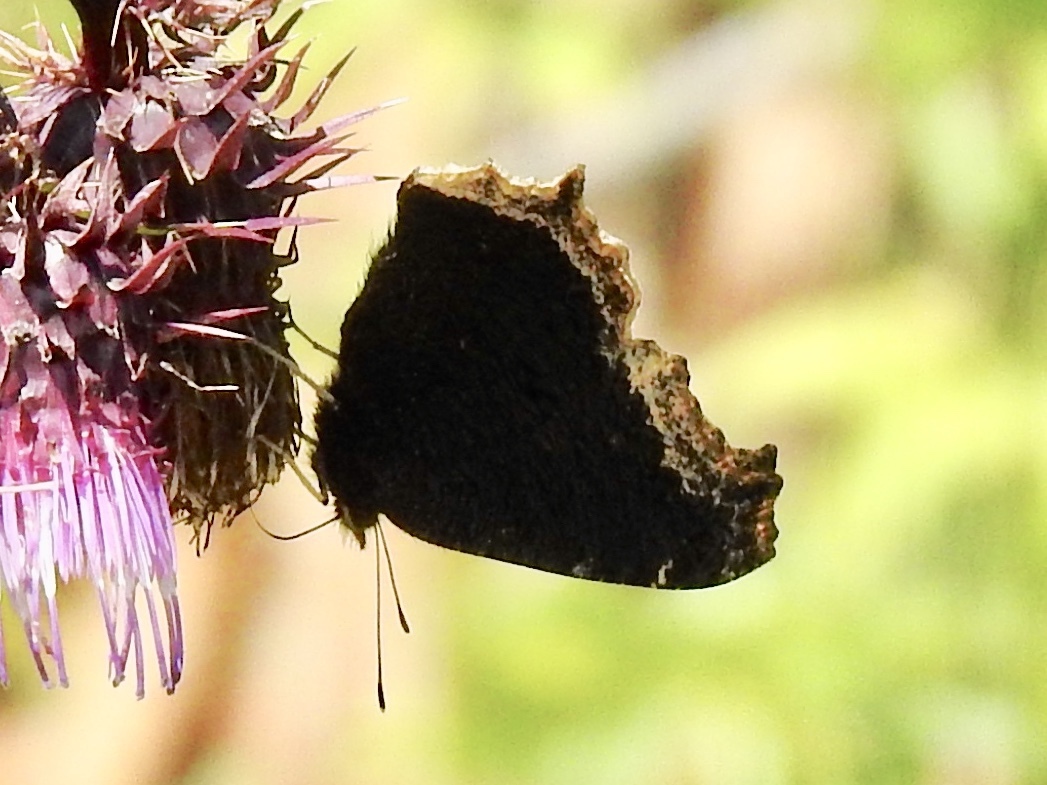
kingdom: Animalia
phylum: Arthropoda
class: Insecta
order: Lepidoptera
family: Nymphalidae
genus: Nymphalis
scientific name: Nymphalis antiopa
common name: Camberwell beauty
